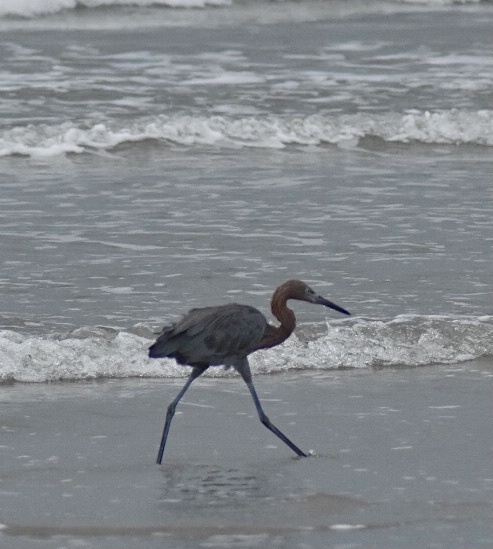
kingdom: Animalia
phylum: Chordata
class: Aves
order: Pelecaniformes
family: Ardeidae
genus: Egretta
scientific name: Egretta rufescens
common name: Reddish egret
